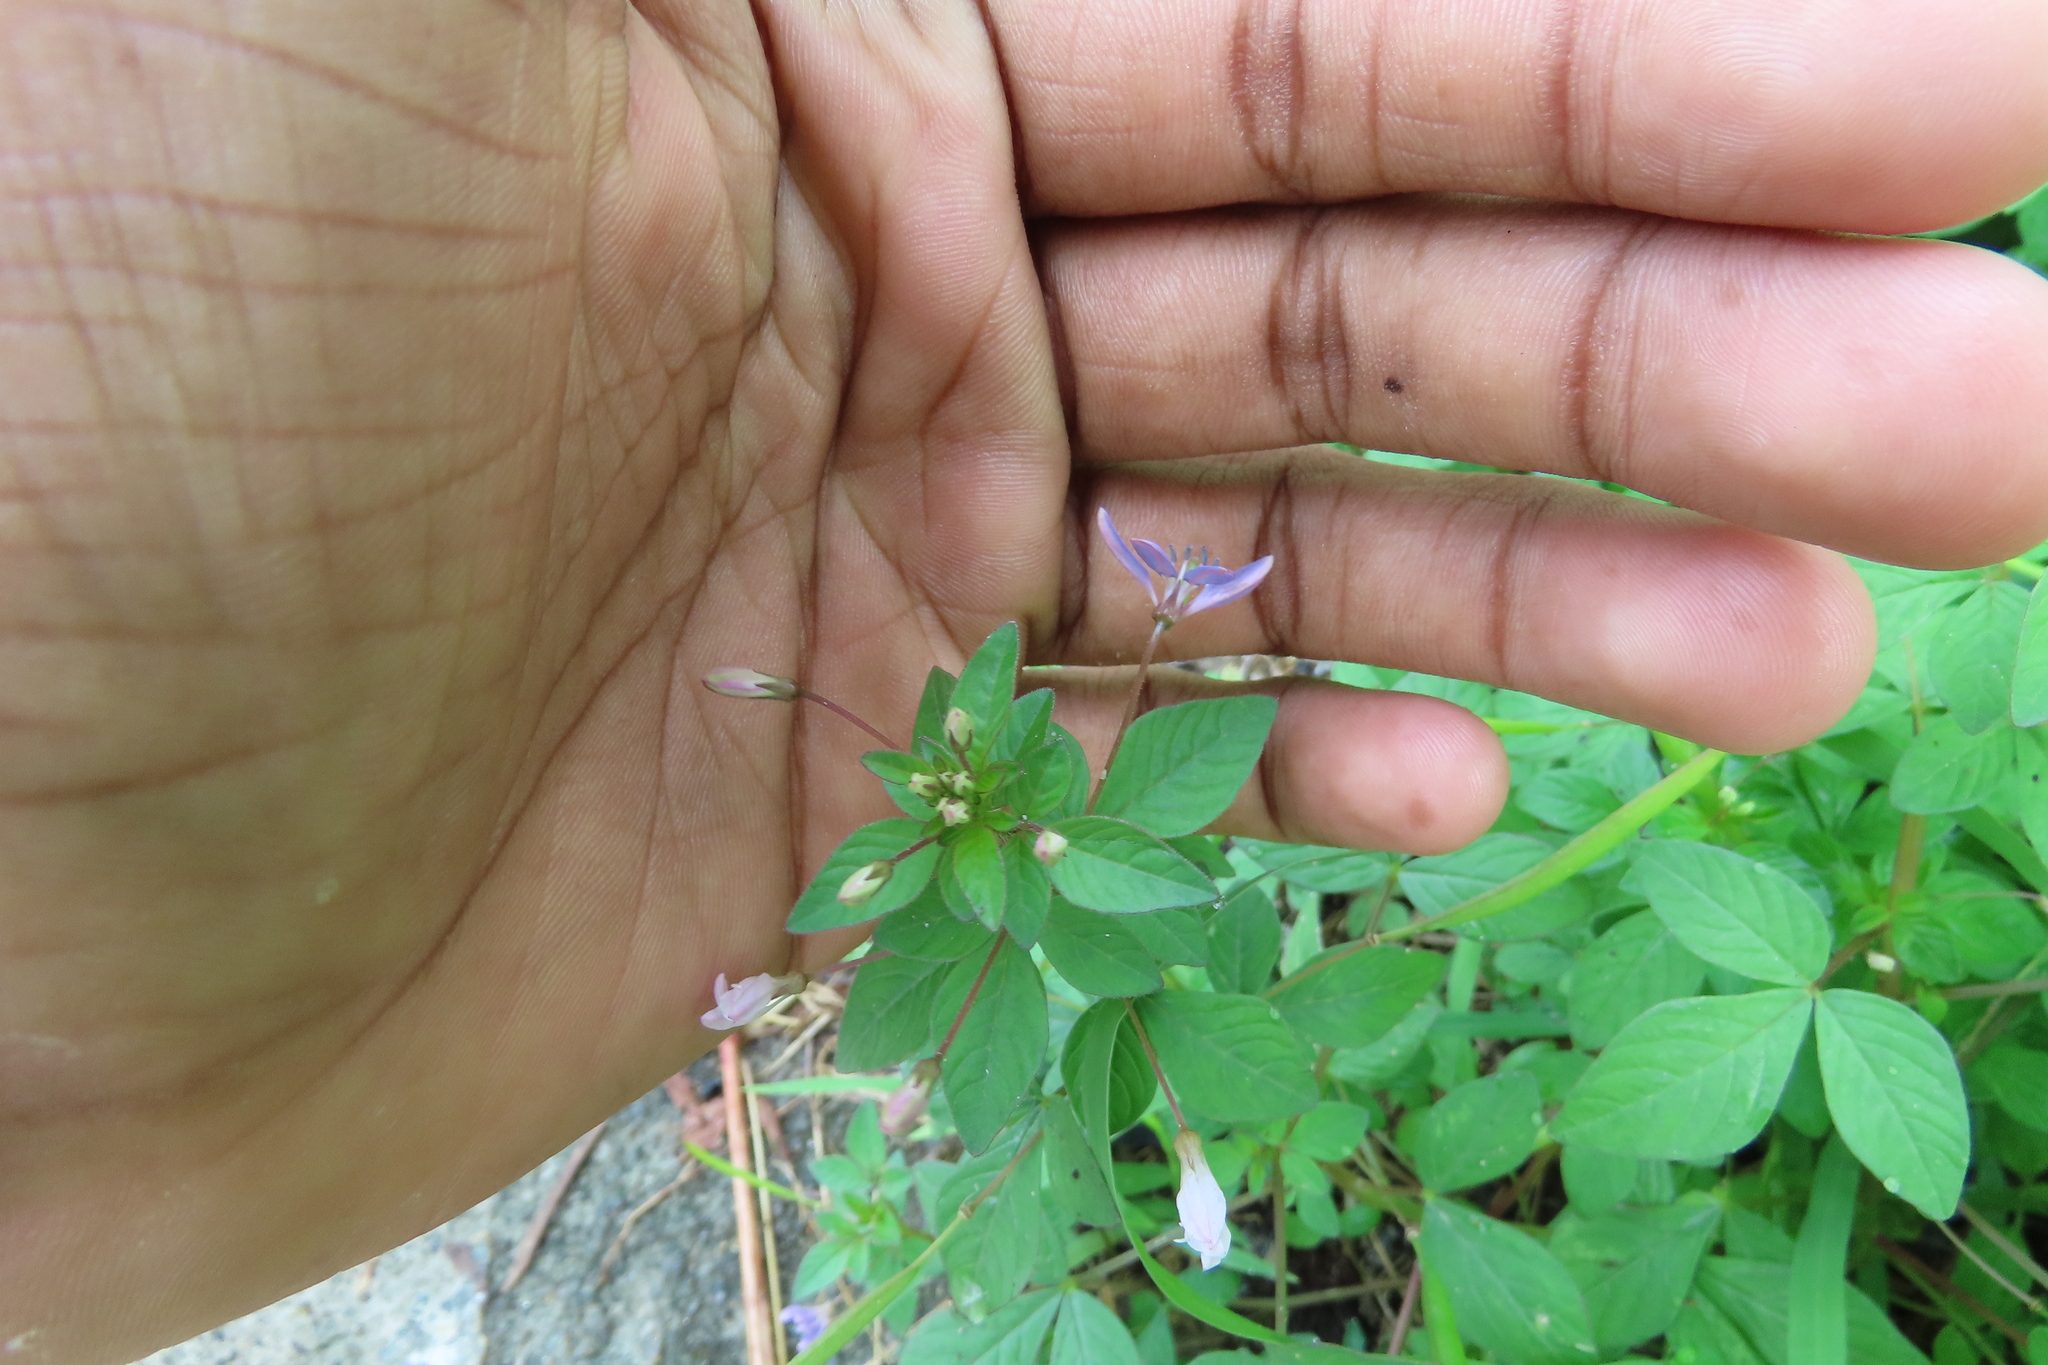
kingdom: Plantae
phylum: Tracheophyta
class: Magnoliopsida
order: Brassicales
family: Cleomaceae
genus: Sieruela
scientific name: Sieruela rutidosperma
